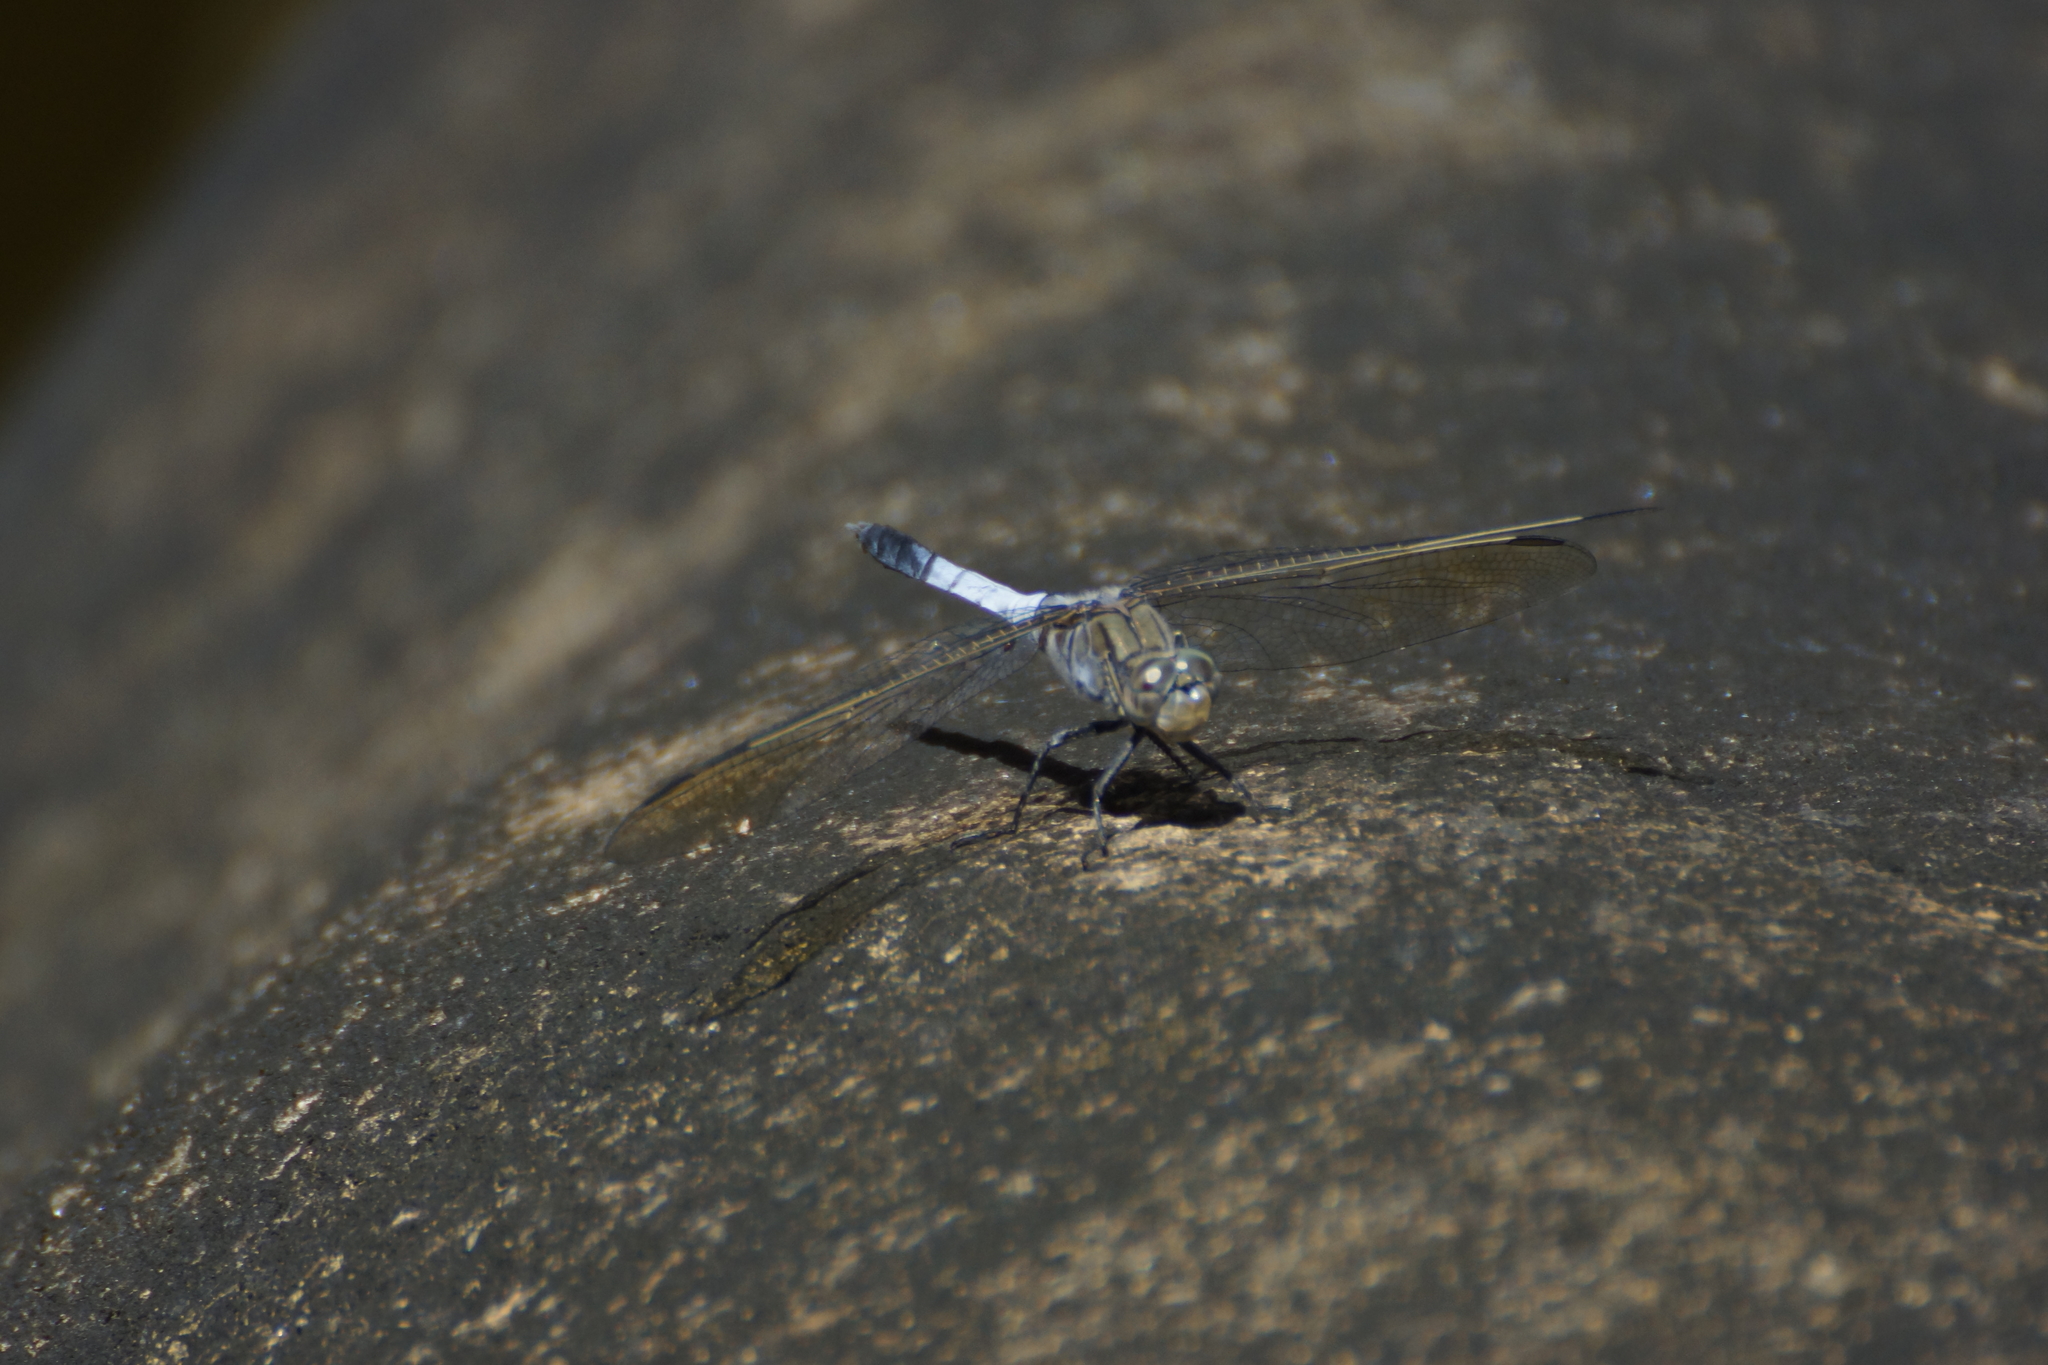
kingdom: Animalia
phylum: Arthropoda
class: Insecta
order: Odonata
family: Libellulidae
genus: Orthetrum
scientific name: Orthetrum caledonicum
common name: Blue skimmer
